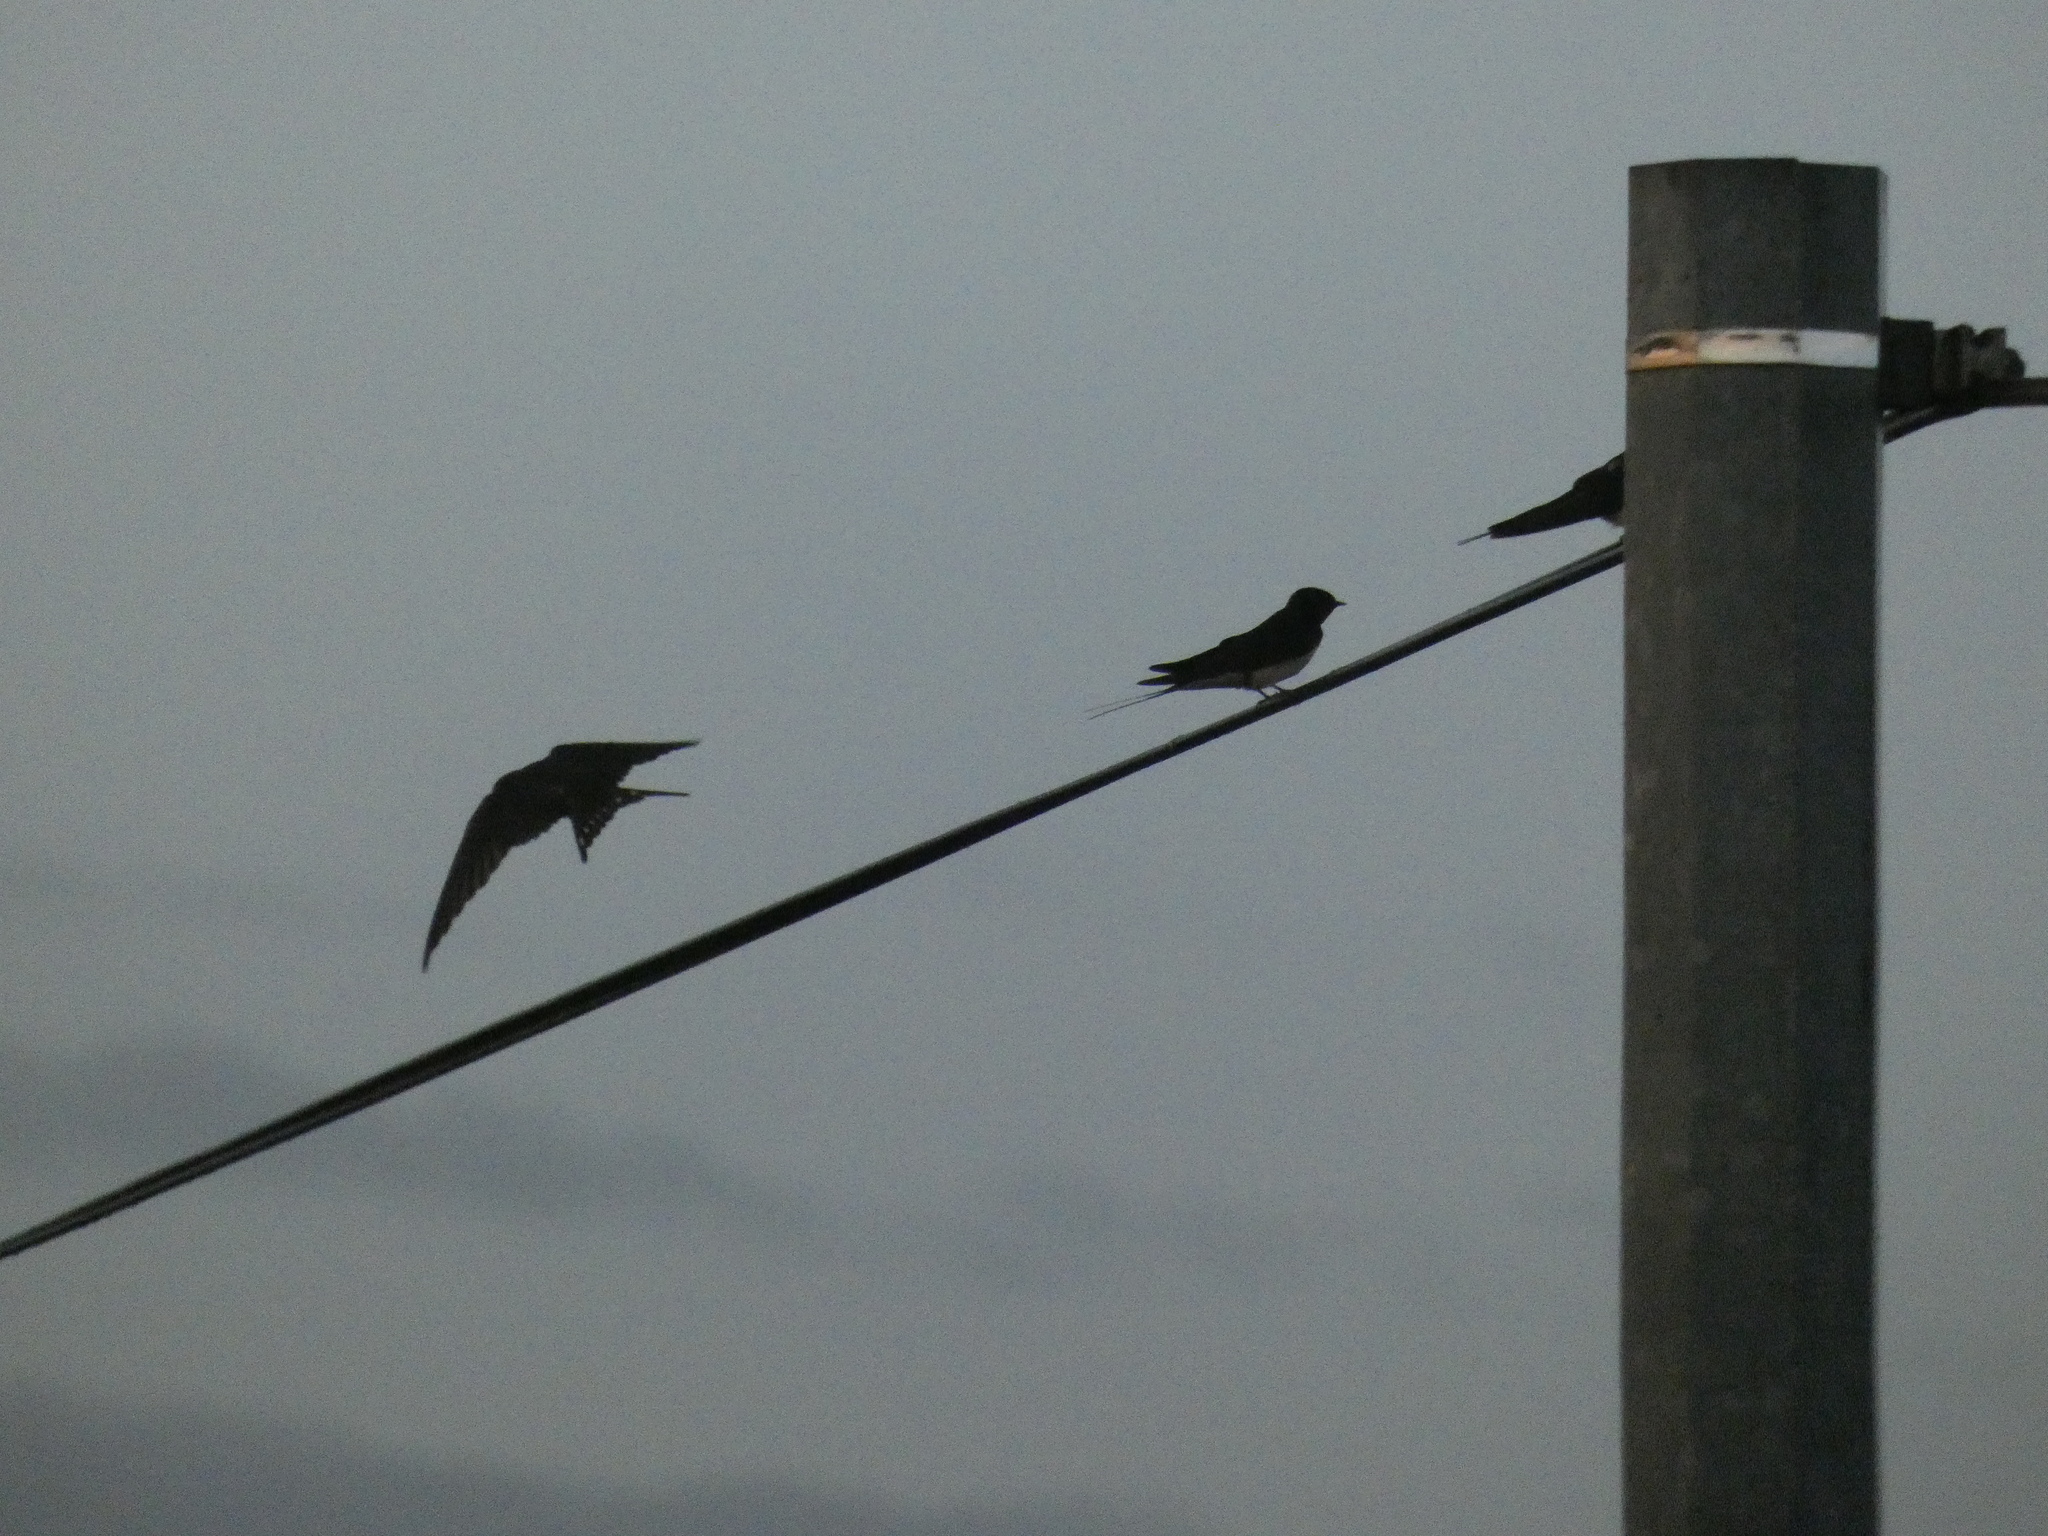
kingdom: Animalia
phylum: Chordata
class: Aves
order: Passeriformes
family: Hirundinidae
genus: Hirundo
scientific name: Hirundo rustica
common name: Barn swallow
